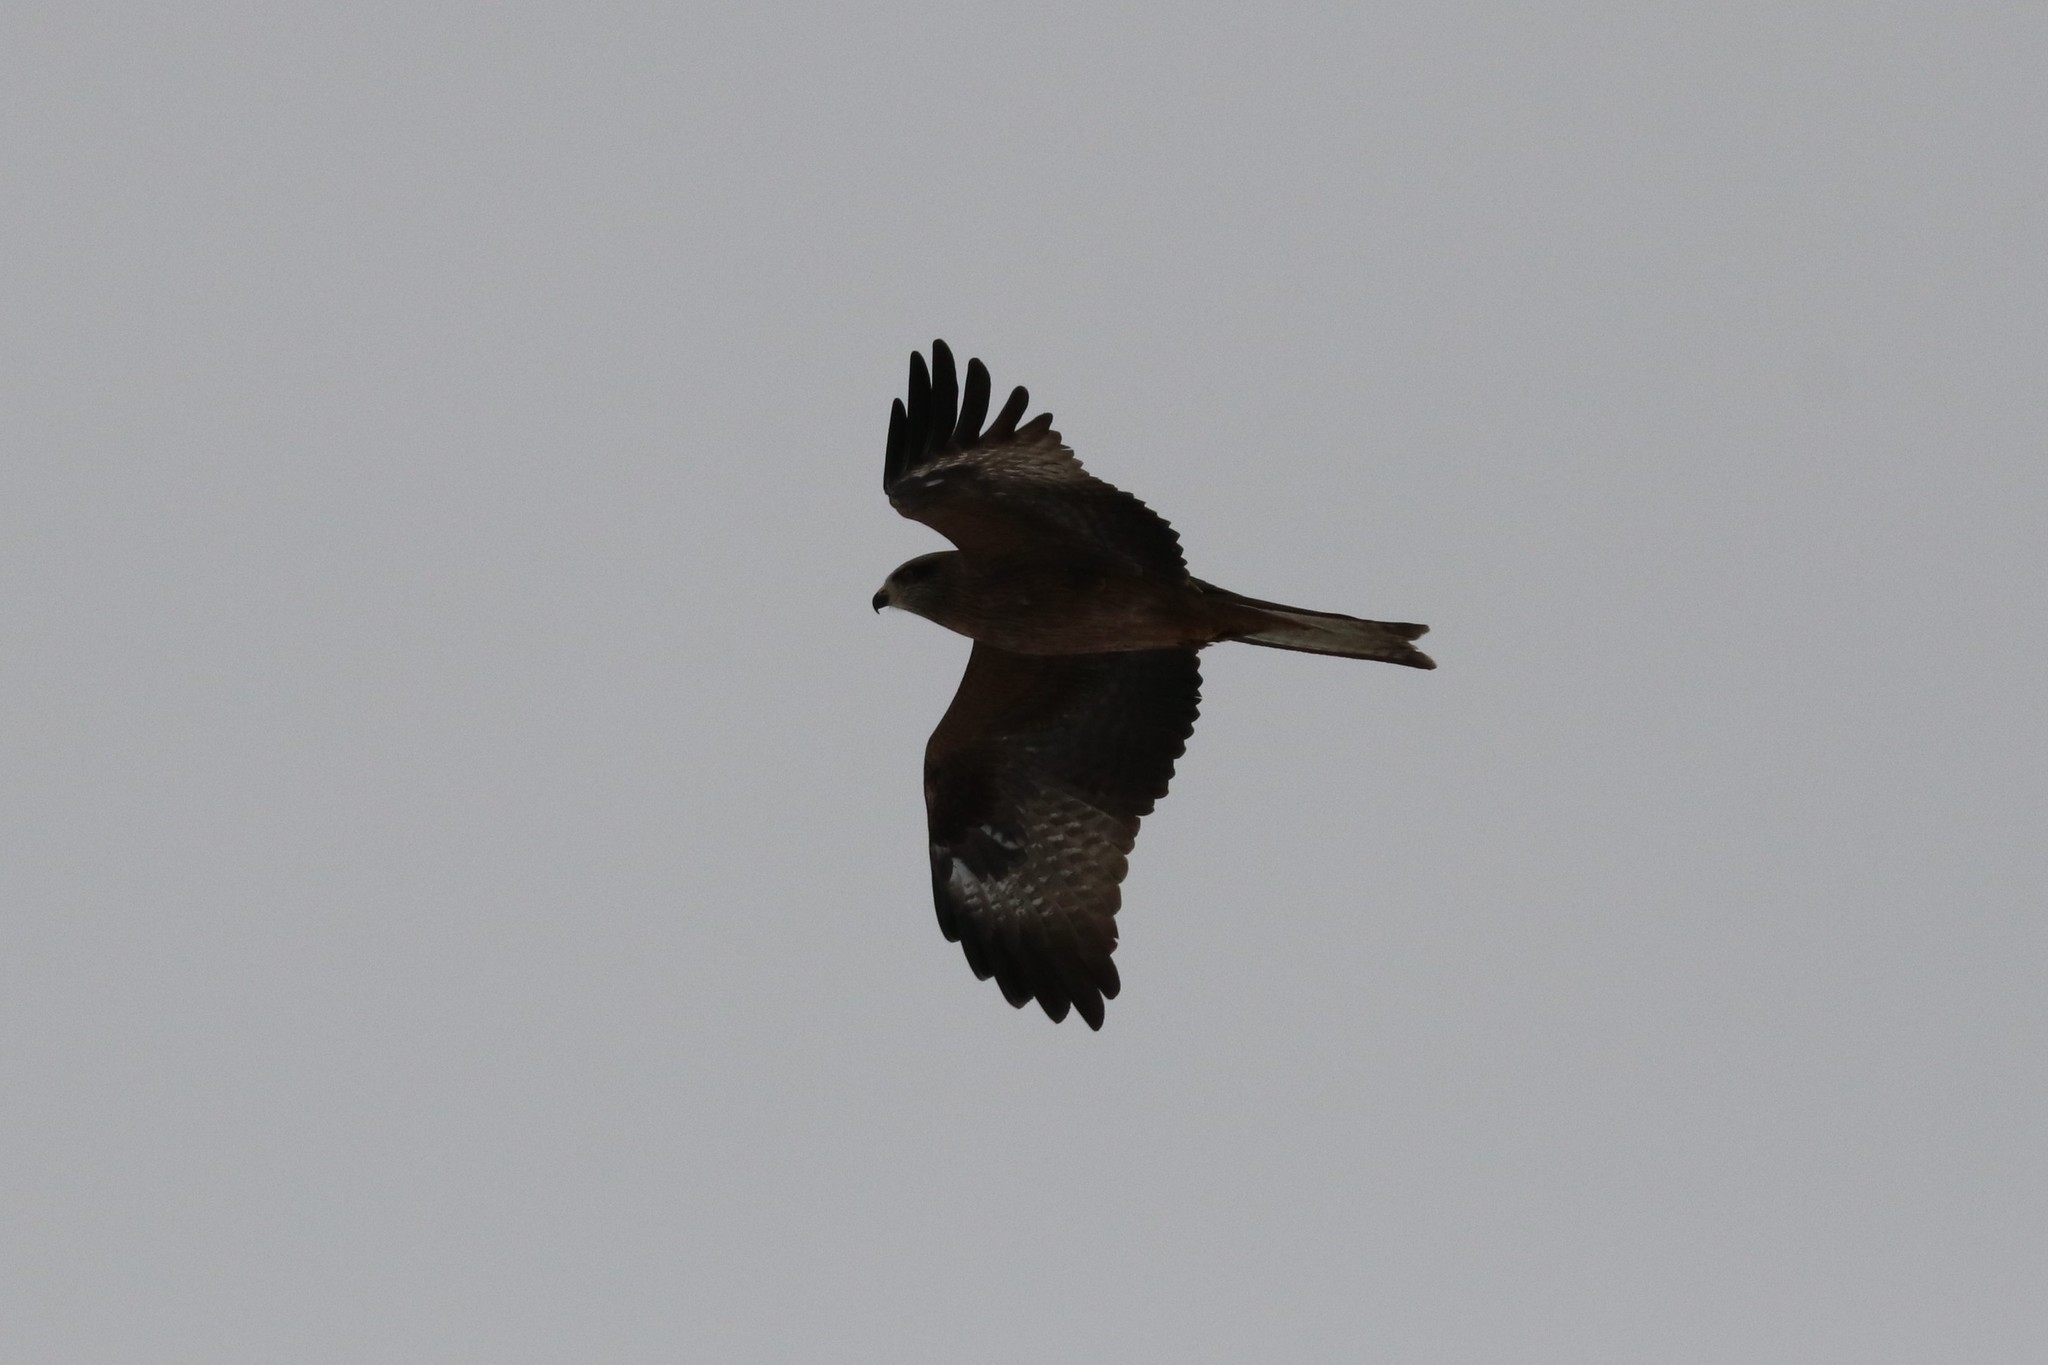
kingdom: Animalia
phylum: Chordata
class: Aves
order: Accipitriformes
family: Accipitridae
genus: Milvus
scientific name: Milvus migrans
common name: Black kite
